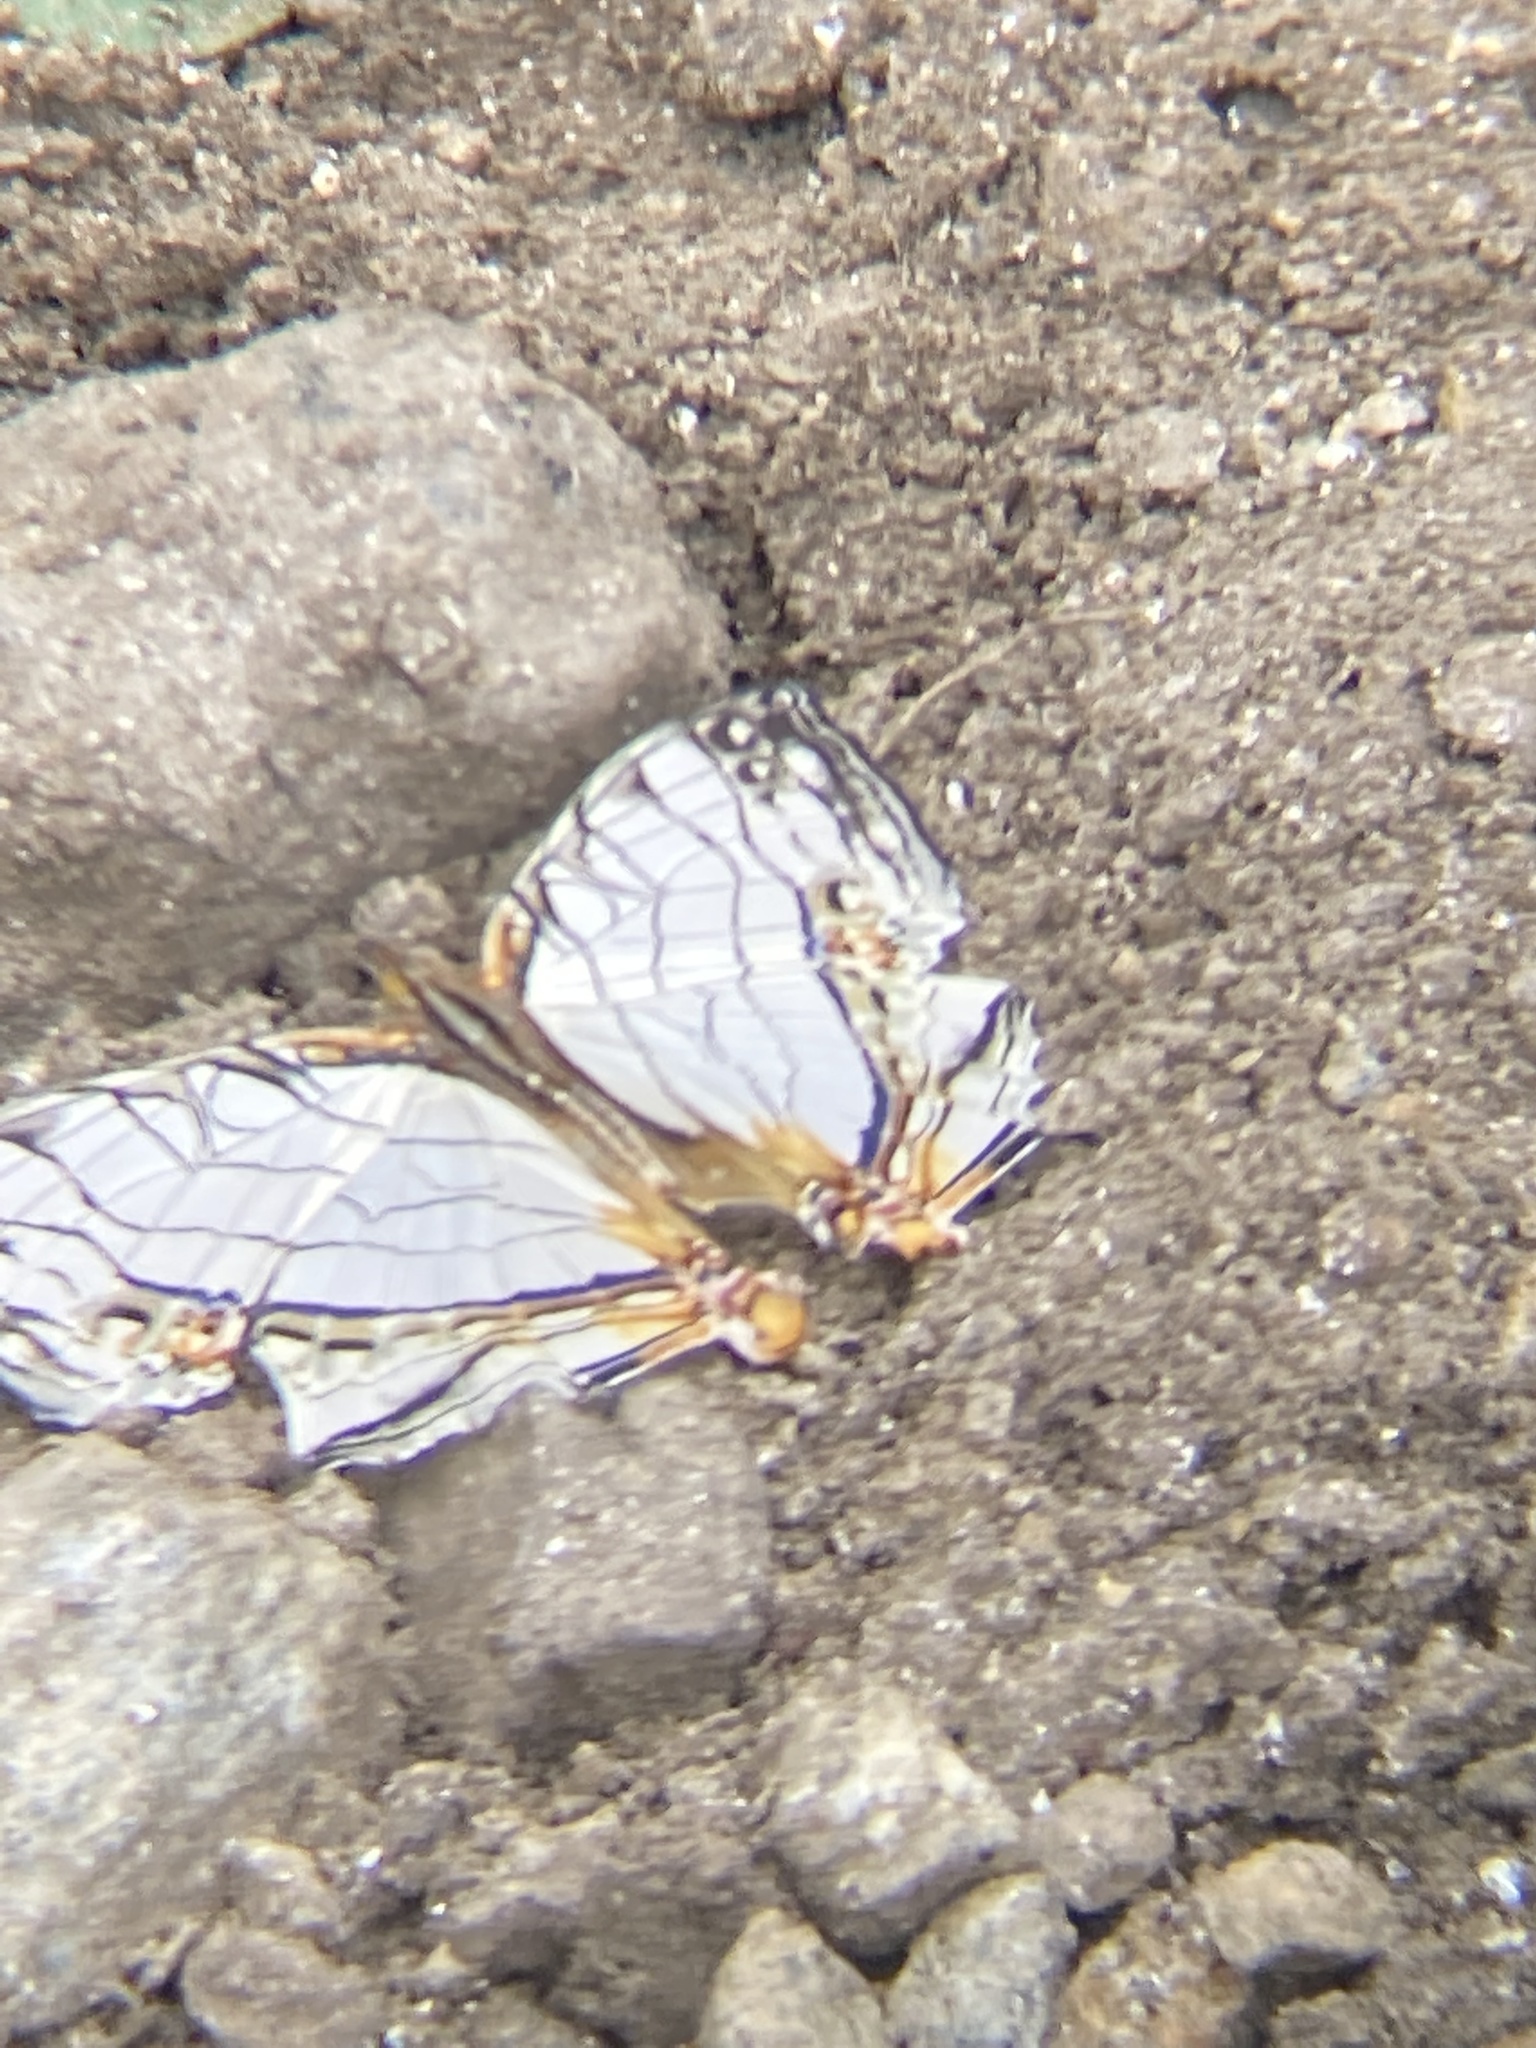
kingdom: Animalia
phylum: Arthropoda
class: Insecta
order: Lepidoptera
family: Nymphalidae
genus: Cyrestis
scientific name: Cyrestis thyodamas
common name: Common mapwing
